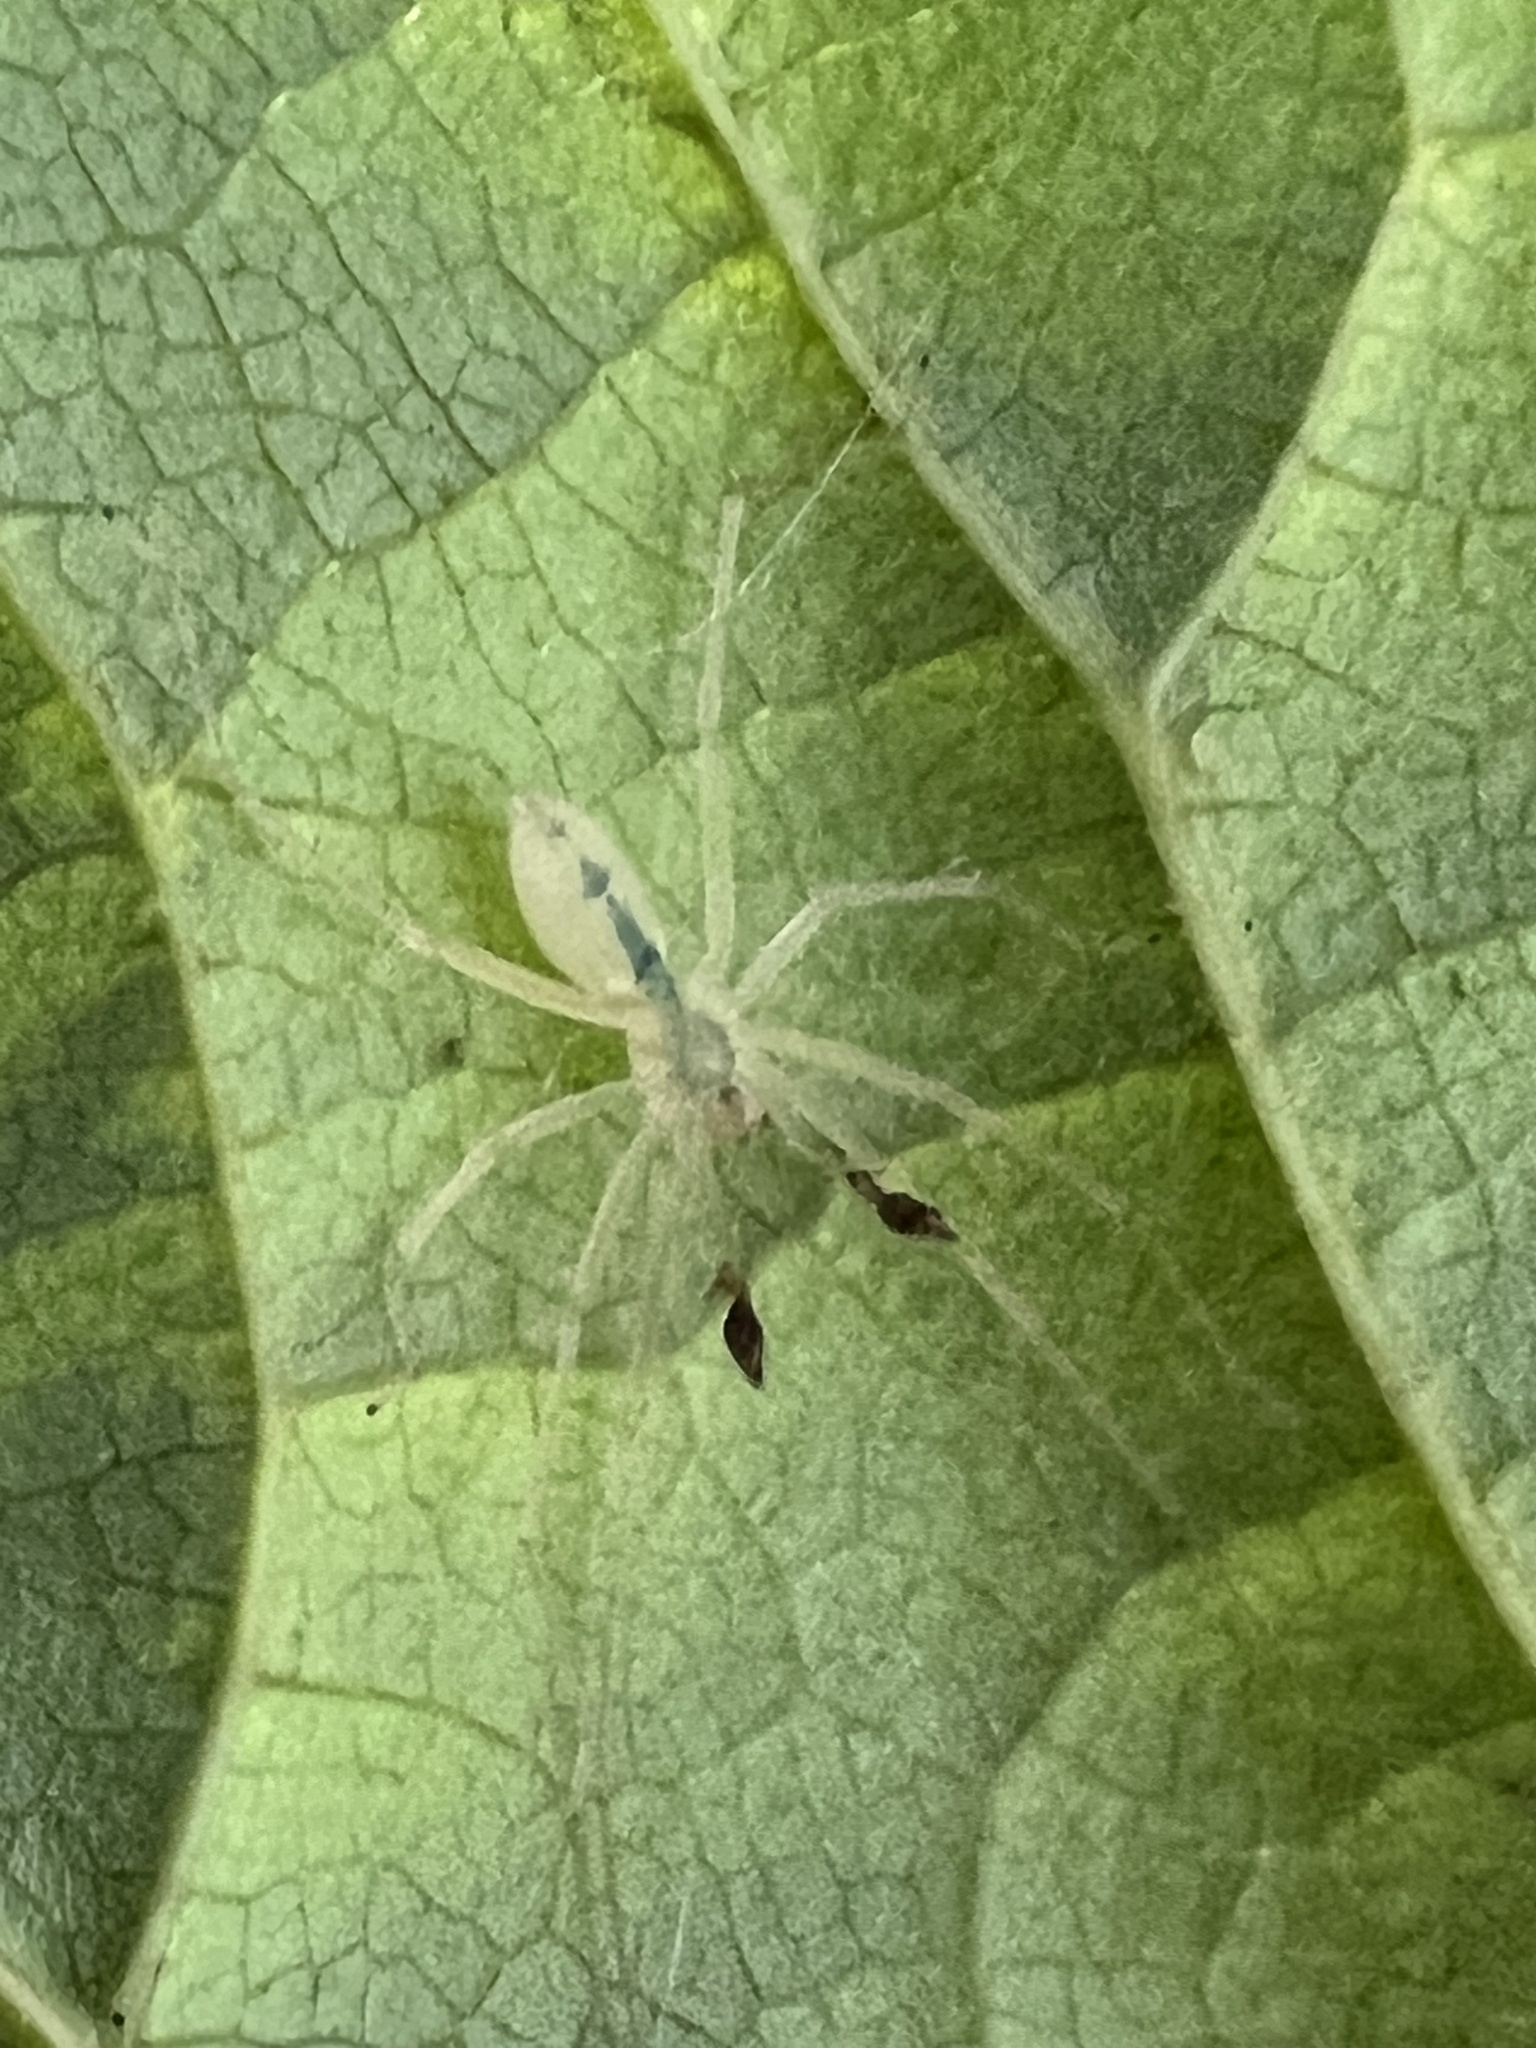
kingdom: Animalia
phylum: Arthropoda
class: Arachnida
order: Araneae
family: Anyphaenidae
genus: Wulfila
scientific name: Wulfila albens
